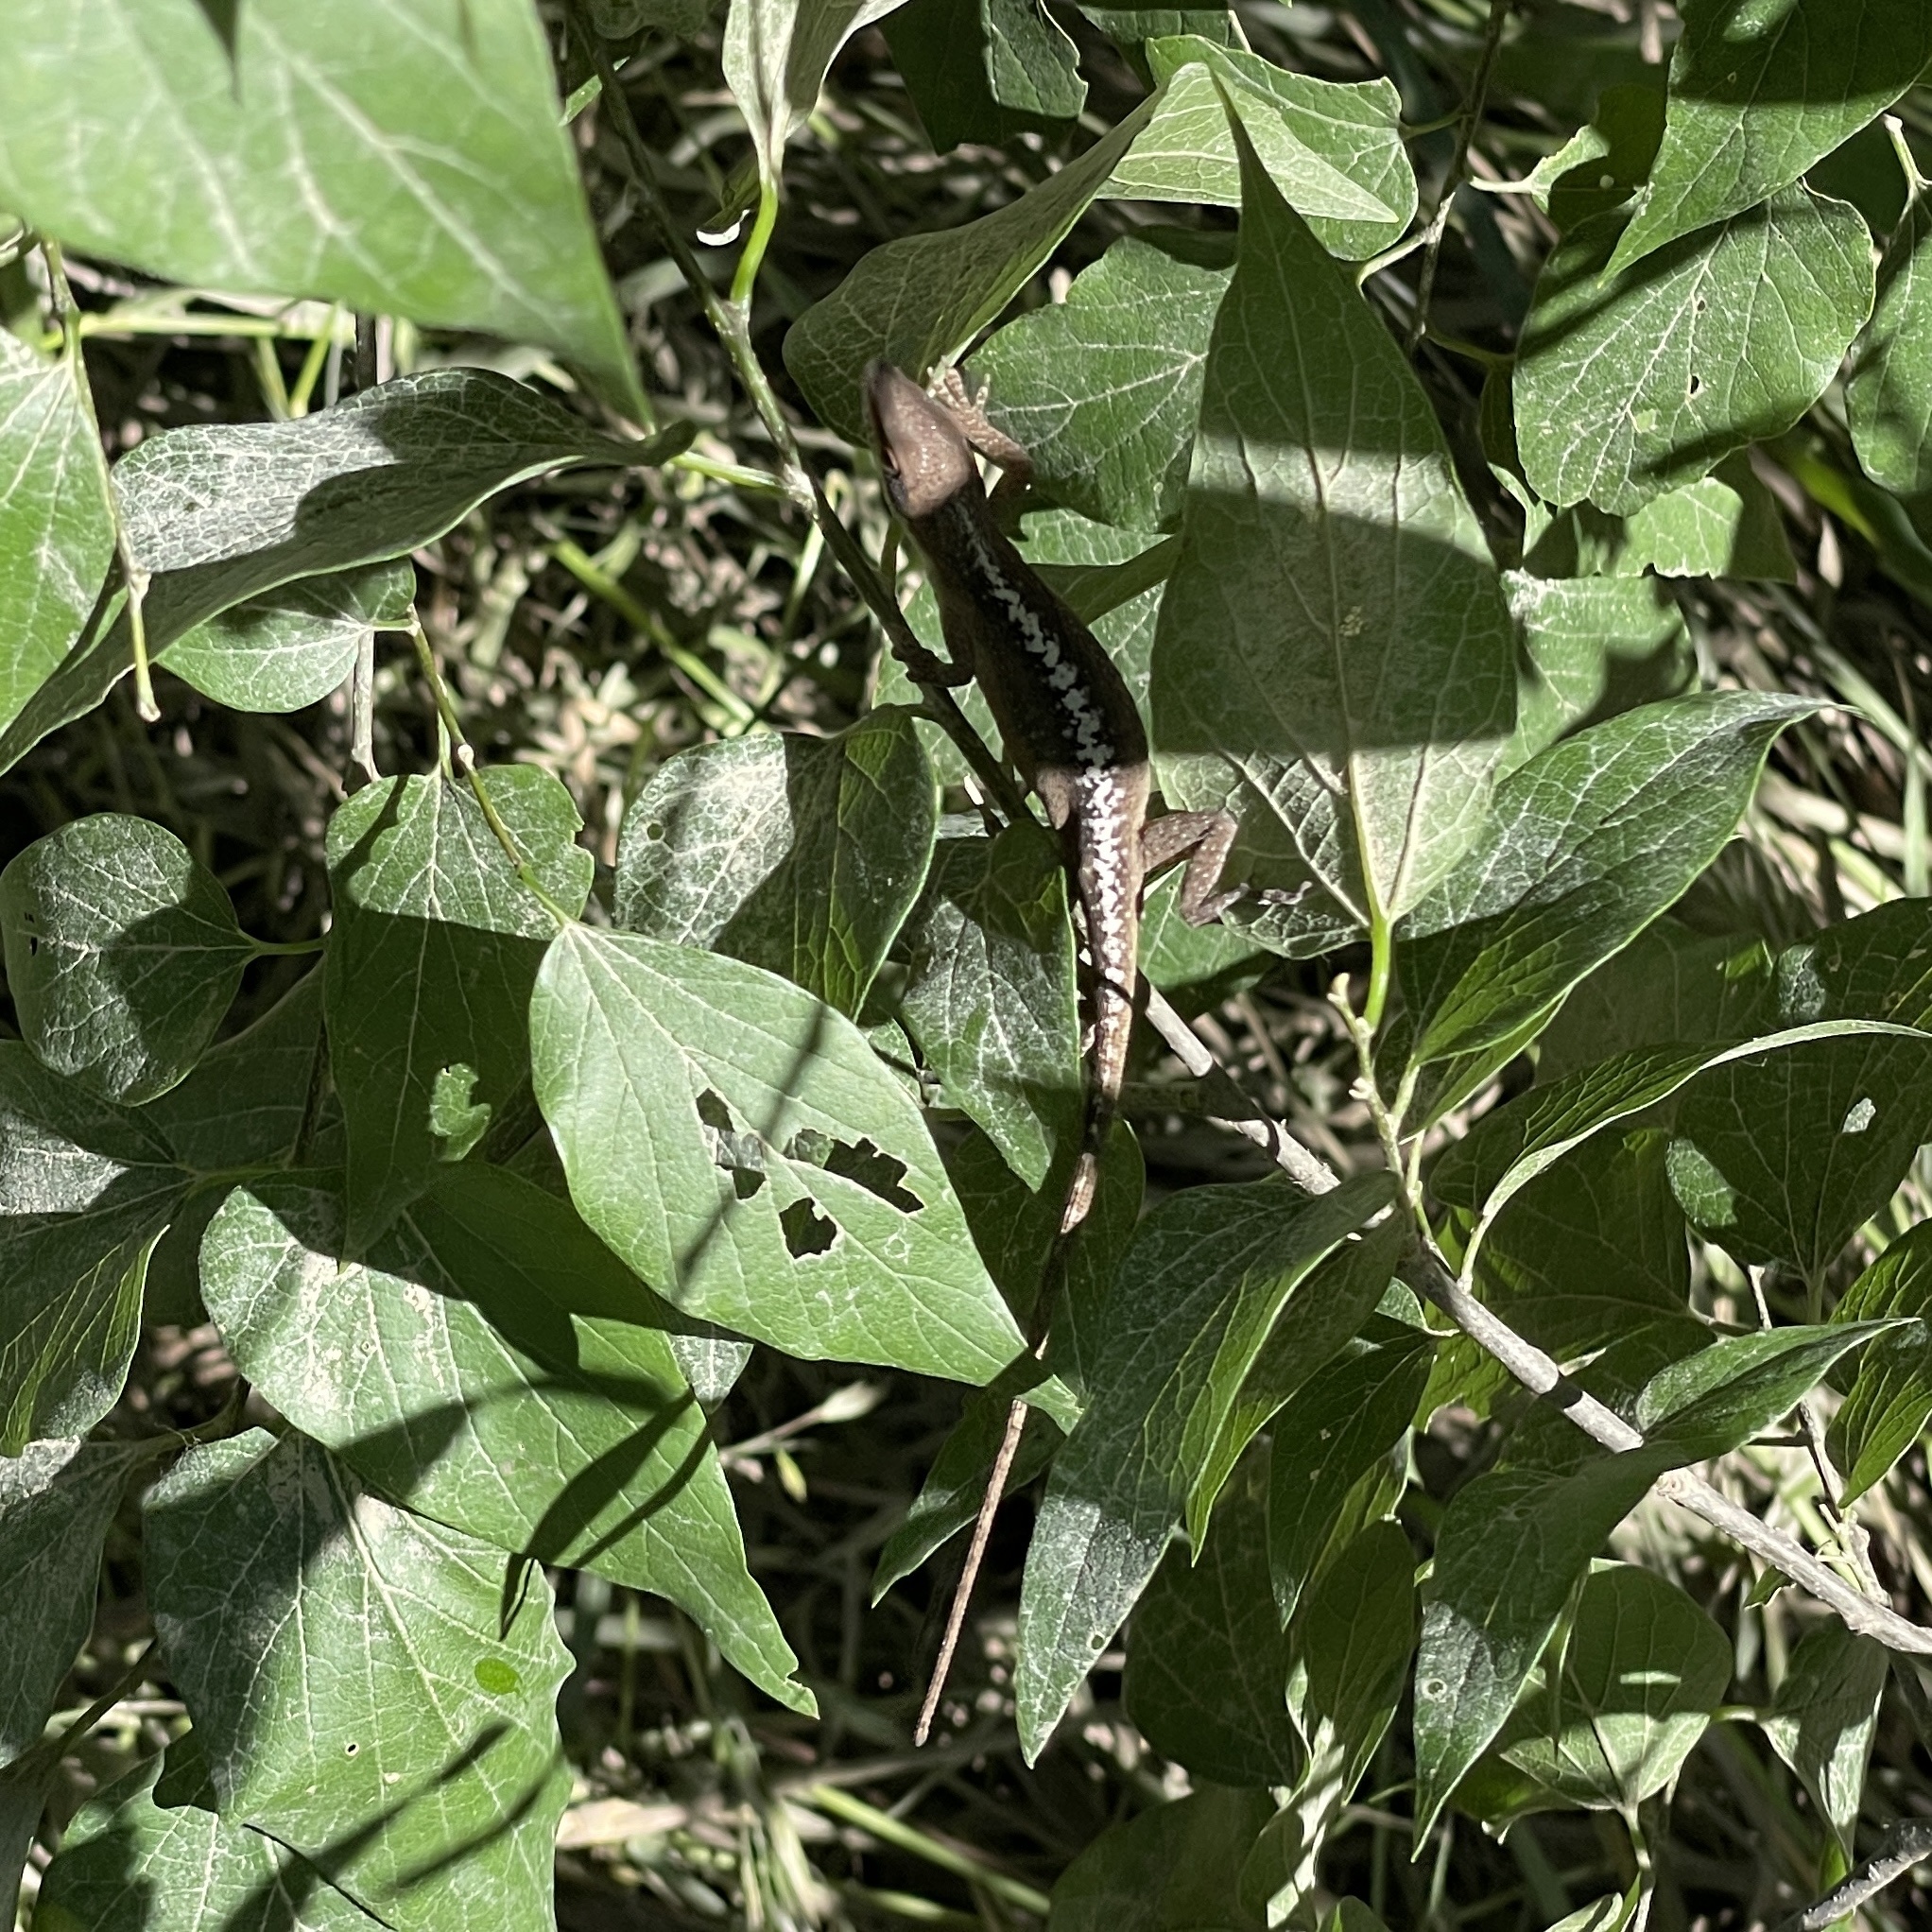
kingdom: Animalia
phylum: Chordata
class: Squamata
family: Dactyloidae
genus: Anolis
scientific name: Anolis carolinensis
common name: Green anole
